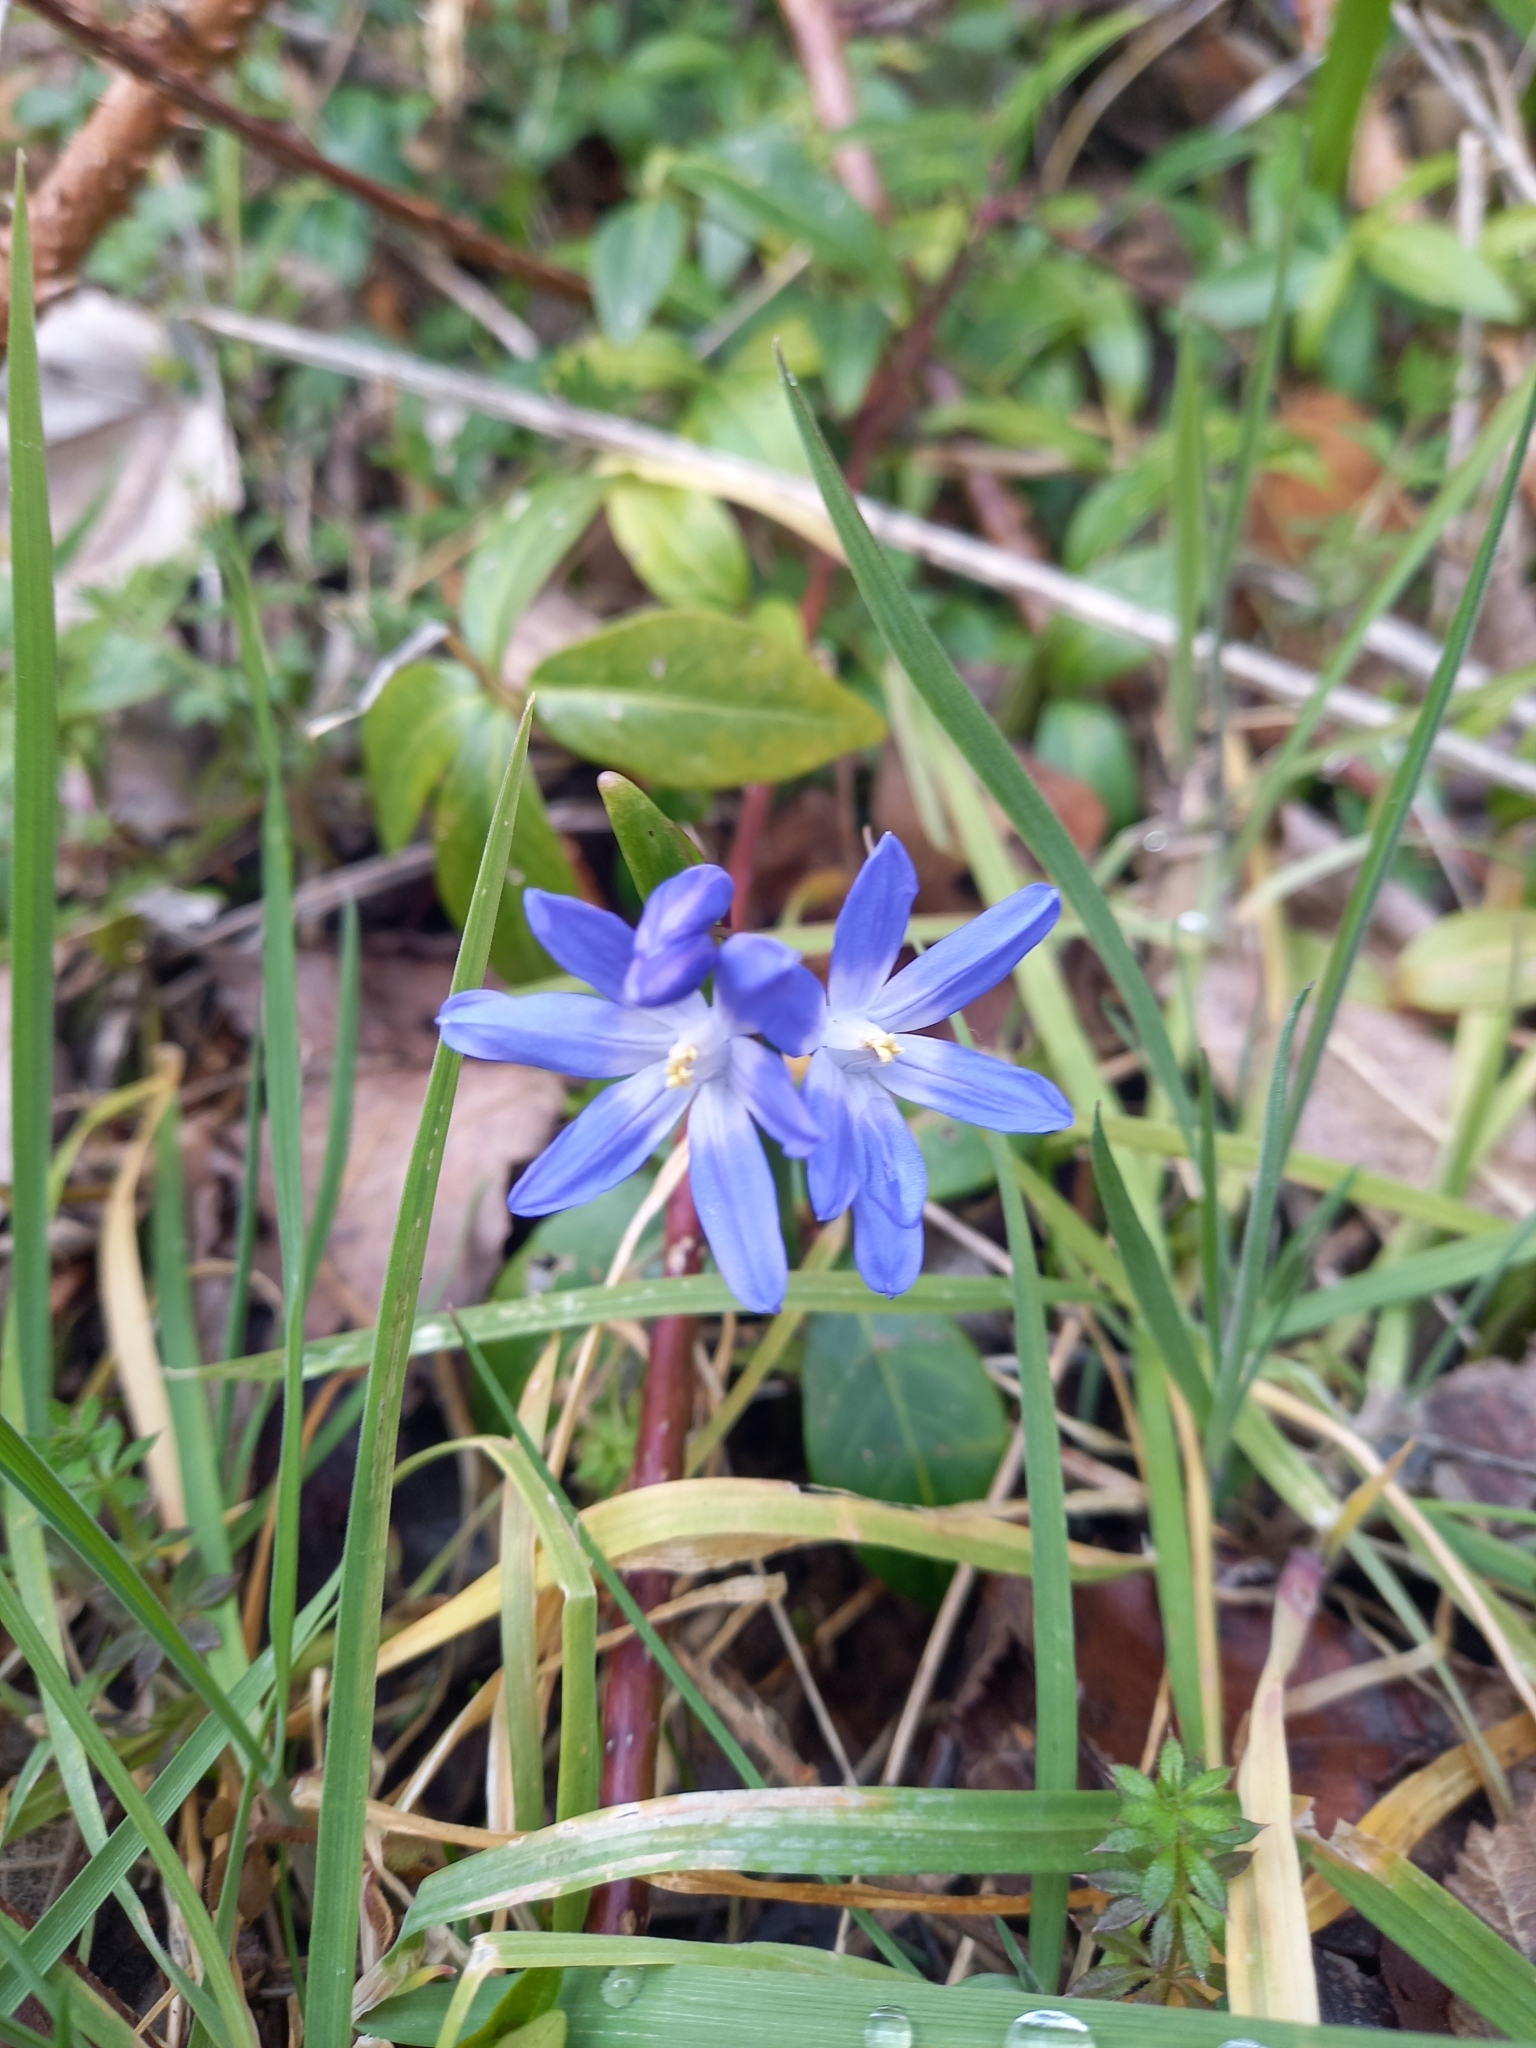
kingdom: Plantae
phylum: Tracheophyta
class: Liliopsida
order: Asparagales
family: Asparagaceae
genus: Scilla
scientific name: Scilla forbesii
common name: Glory-of-the-snow
